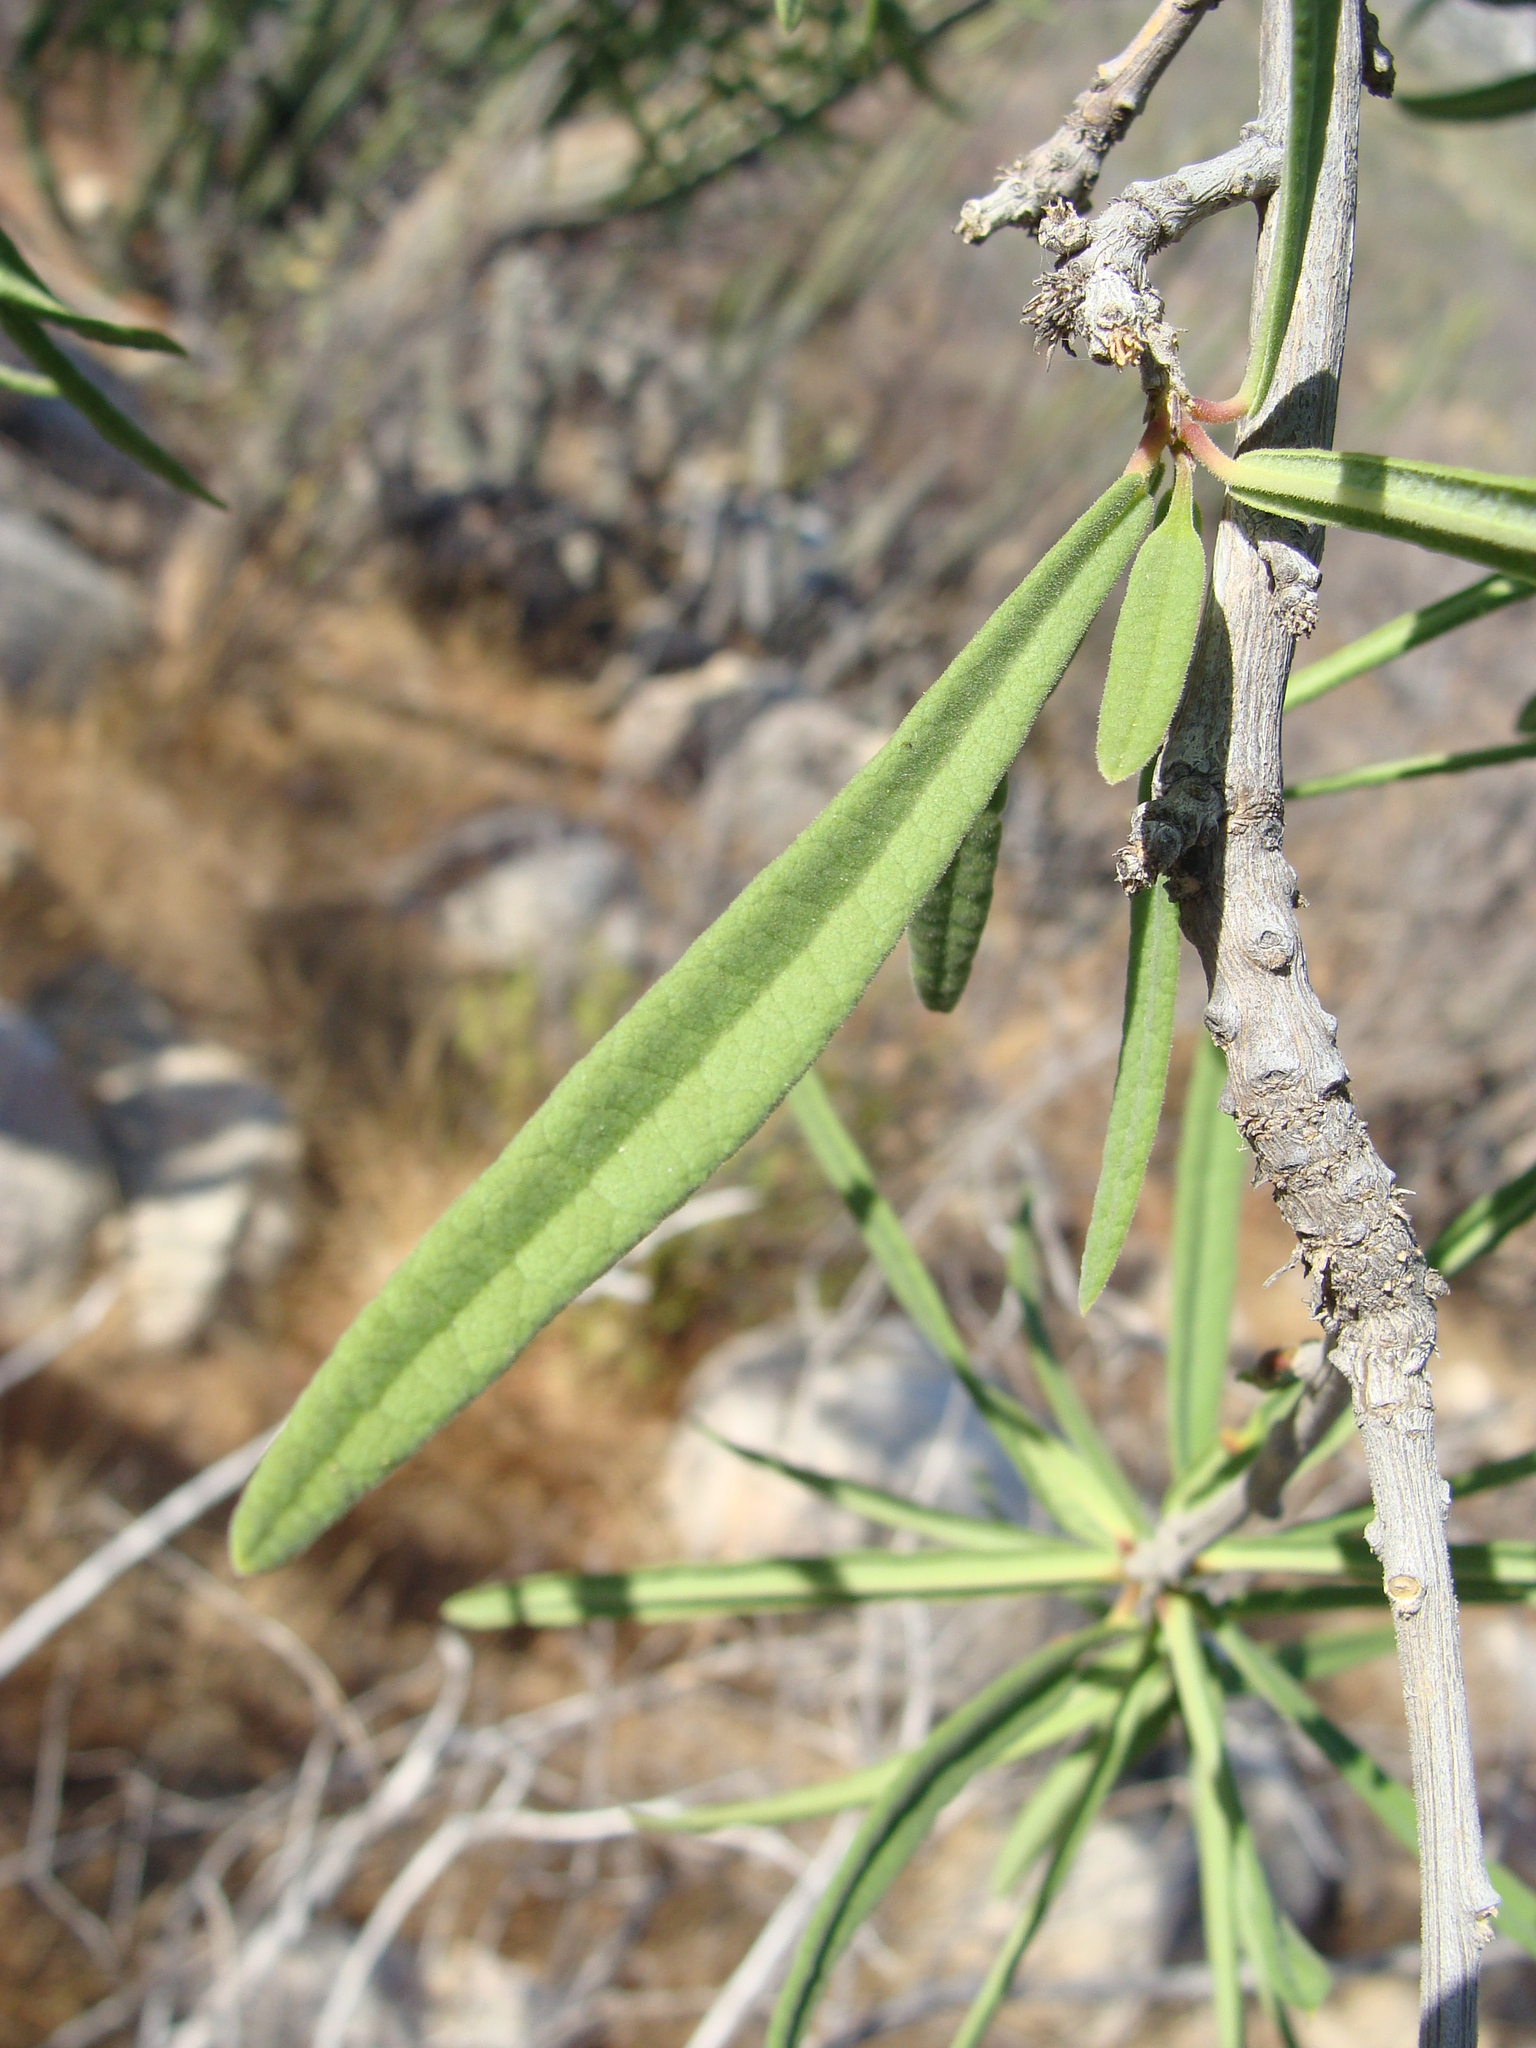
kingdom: Plantae
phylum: Tracheophyta
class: Magnoliopsida
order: Brassicales
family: Stixaceae
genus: Forchhammeria
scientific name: Forchhammeria watsonii
